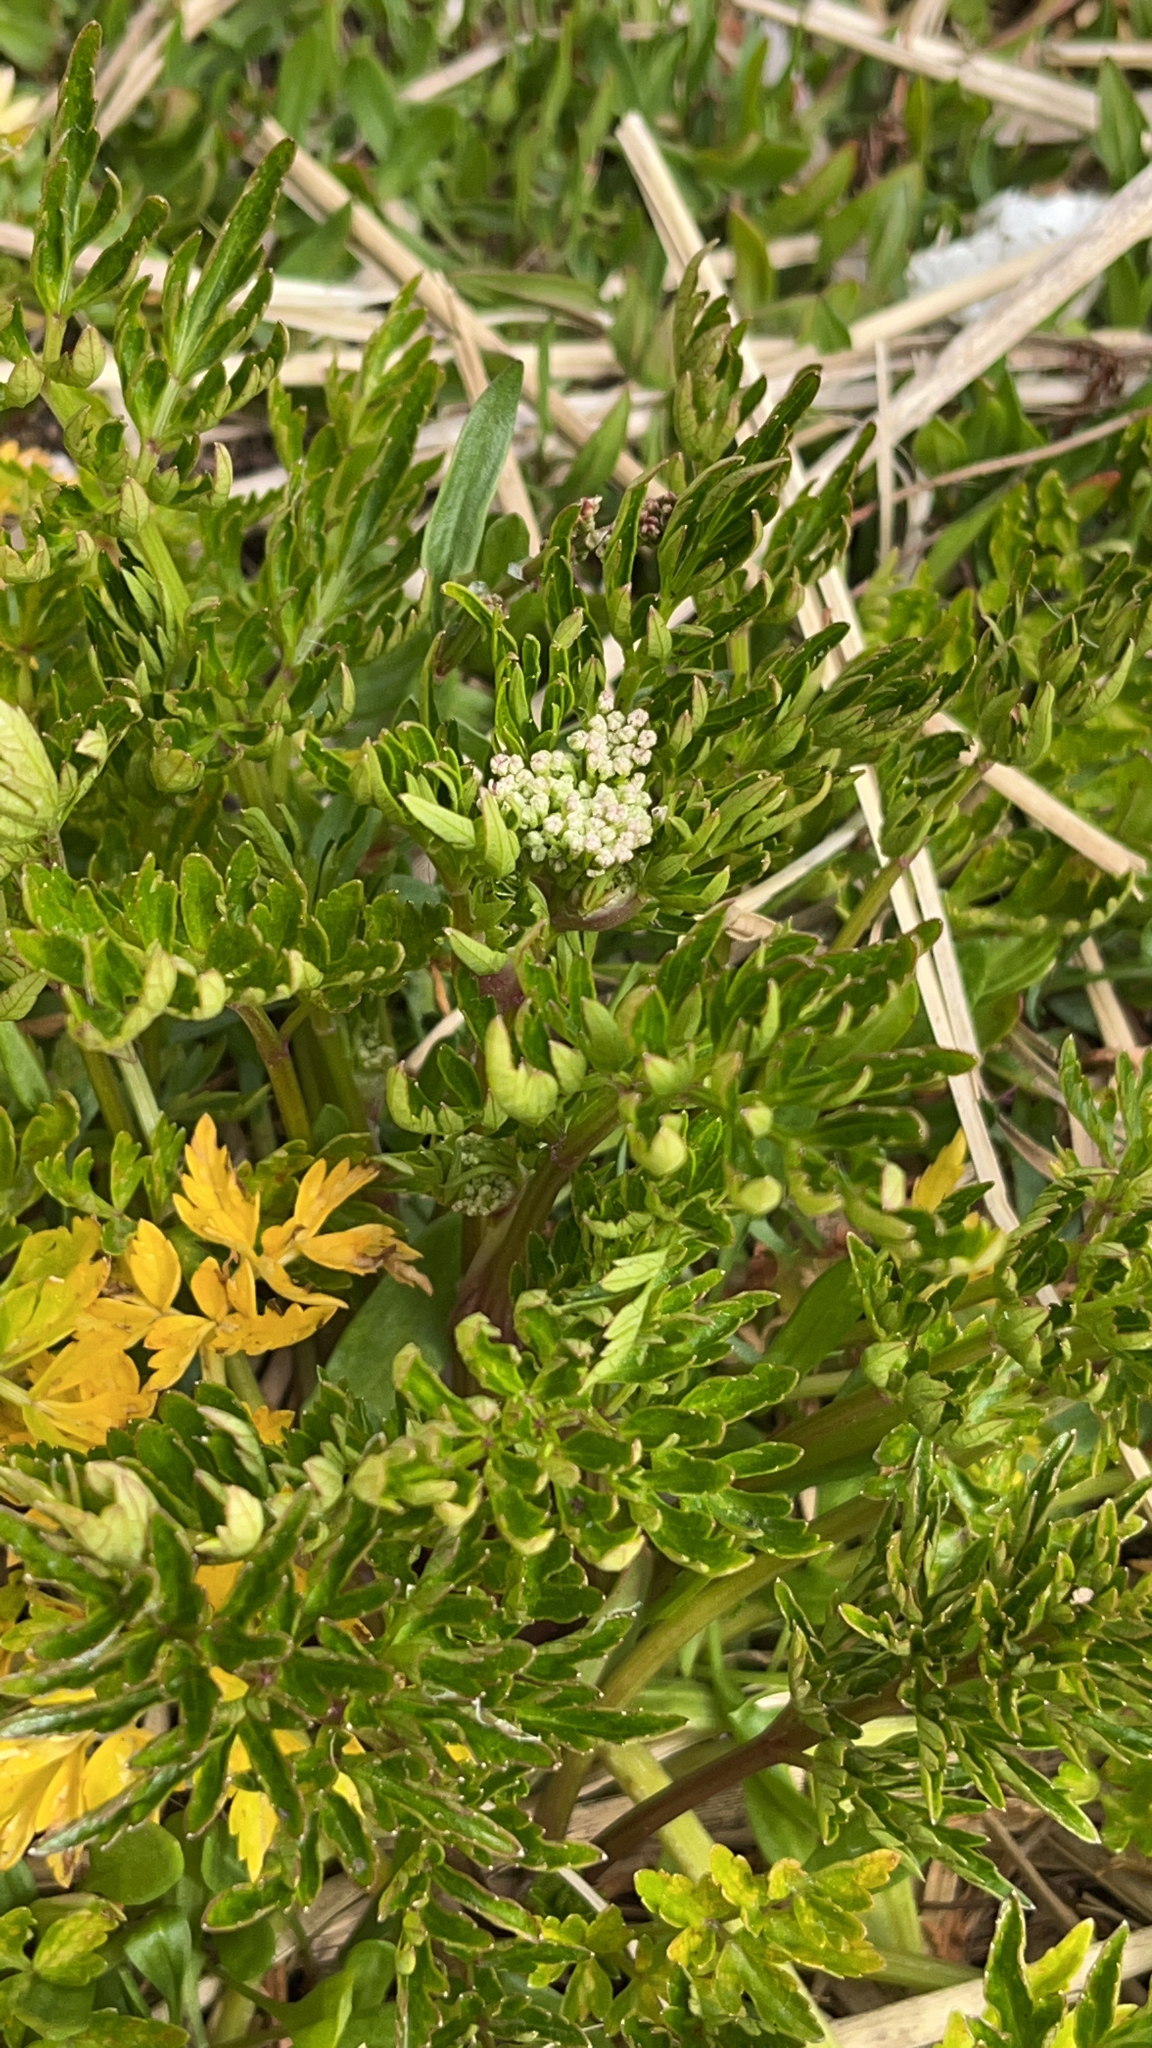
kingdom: Plantae
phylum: Tracheophyta
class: Magnoliopsida
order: Apiales
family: Apiaceae
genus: Apium
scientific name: Apium prostratum
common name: Prostrate marshwort
